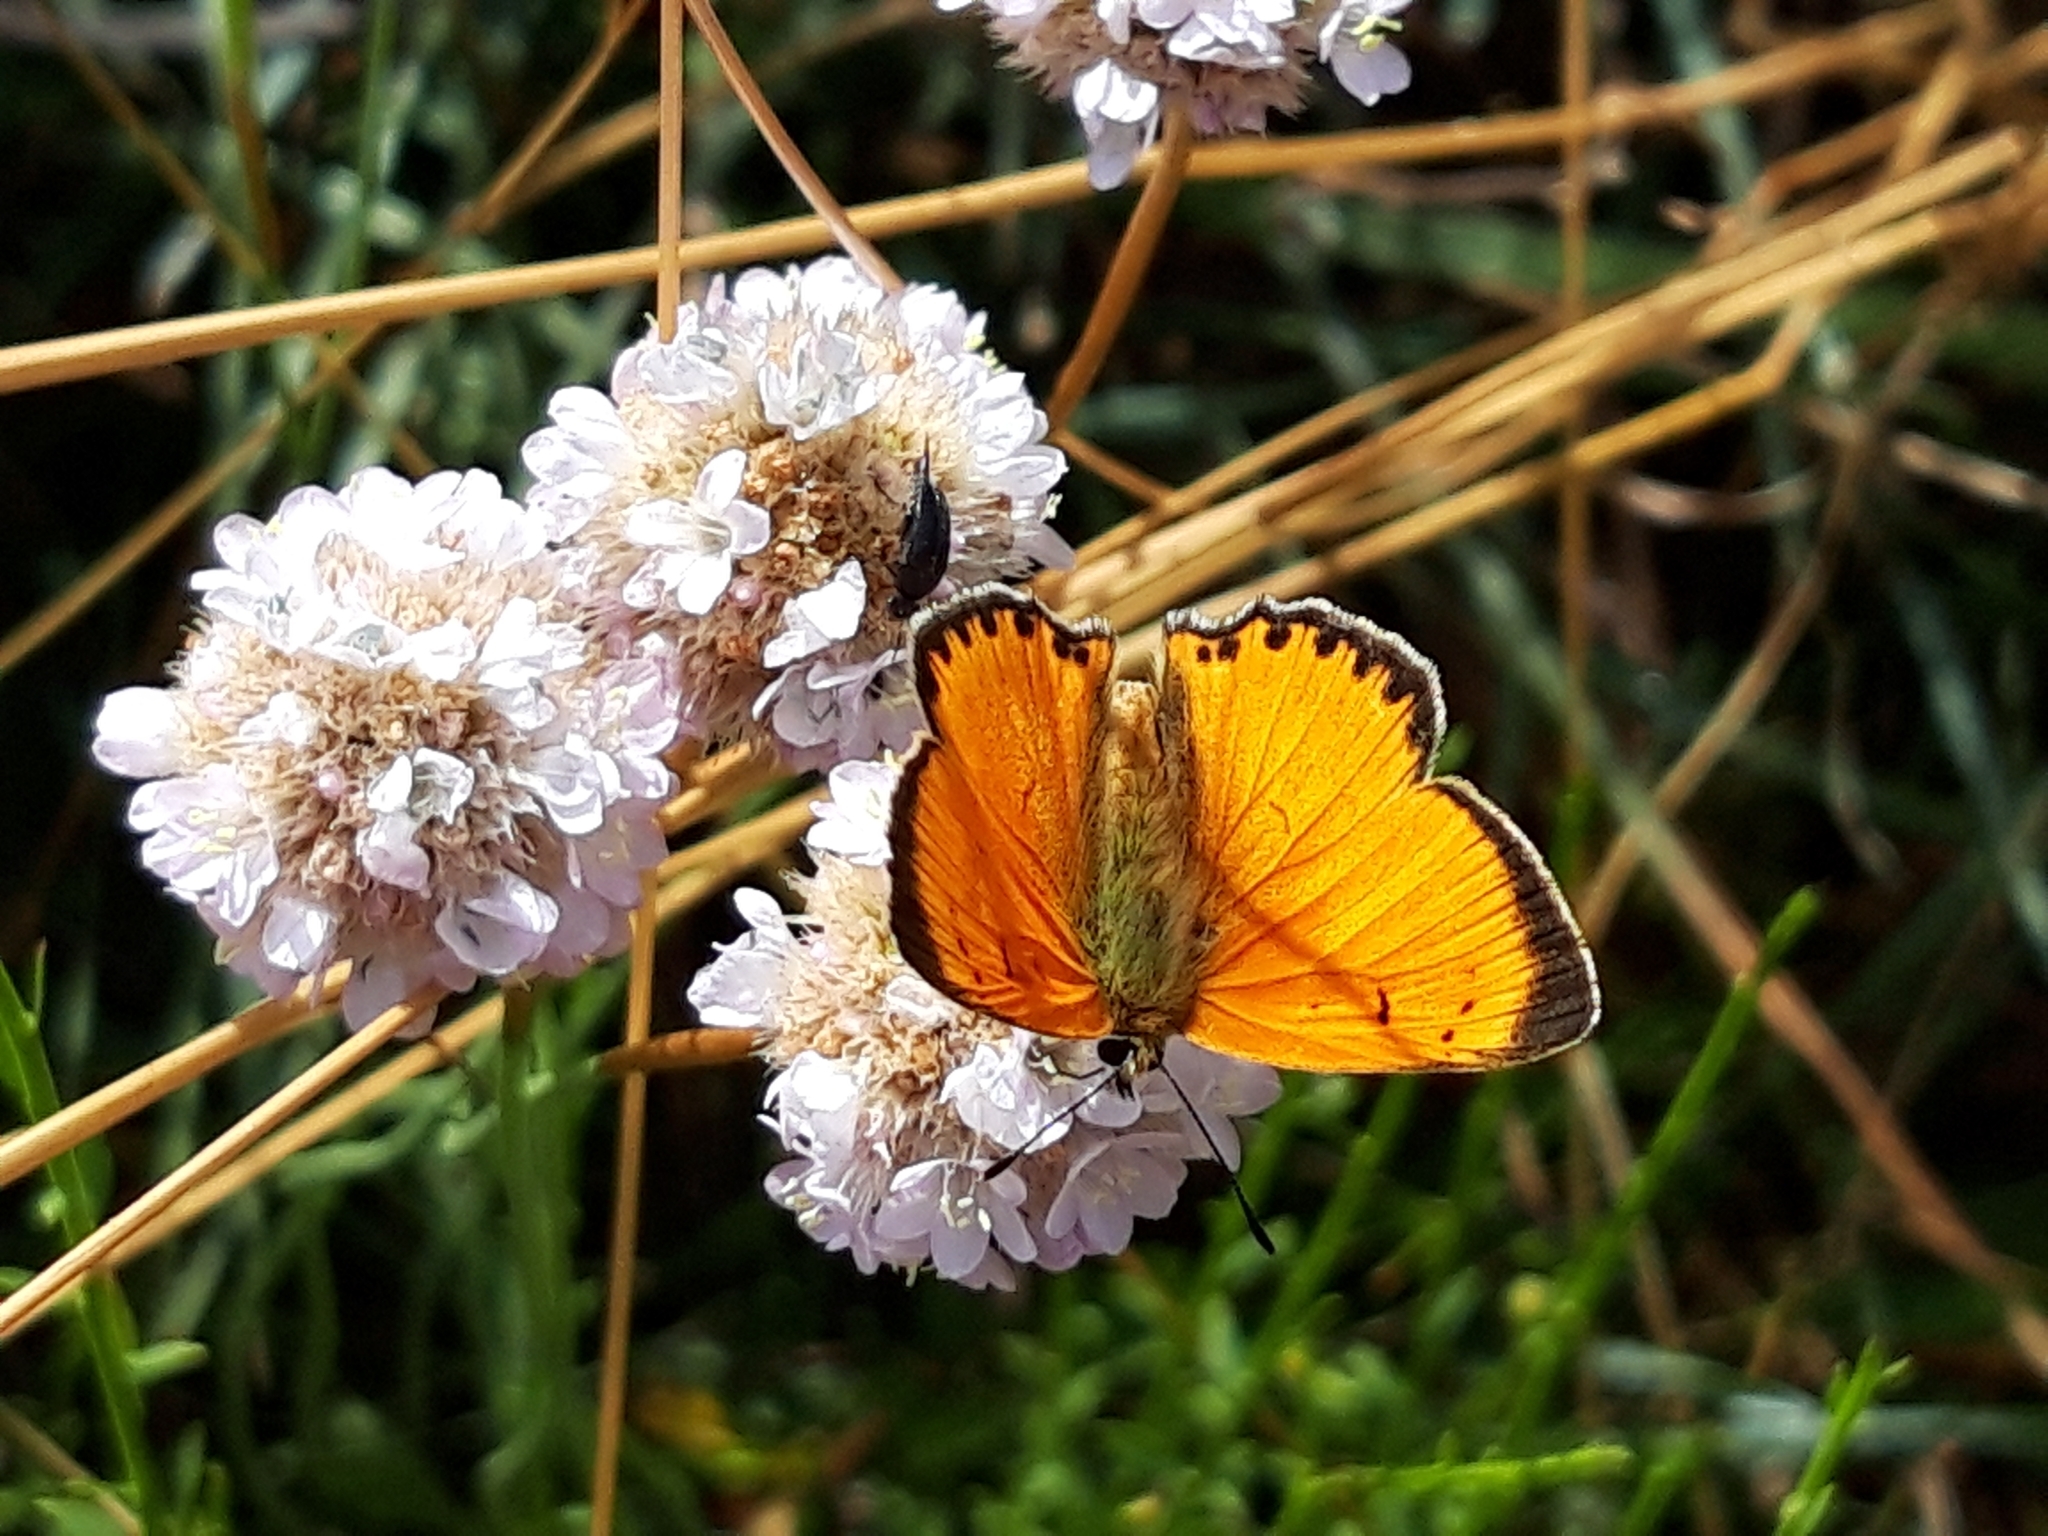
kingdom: Animalia
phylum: Arthropoda
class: Insecta
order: Lepidoptera
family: Lycaenidae
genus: Lycaena
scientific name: Lycaena virgaureae
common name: Scarce copper
